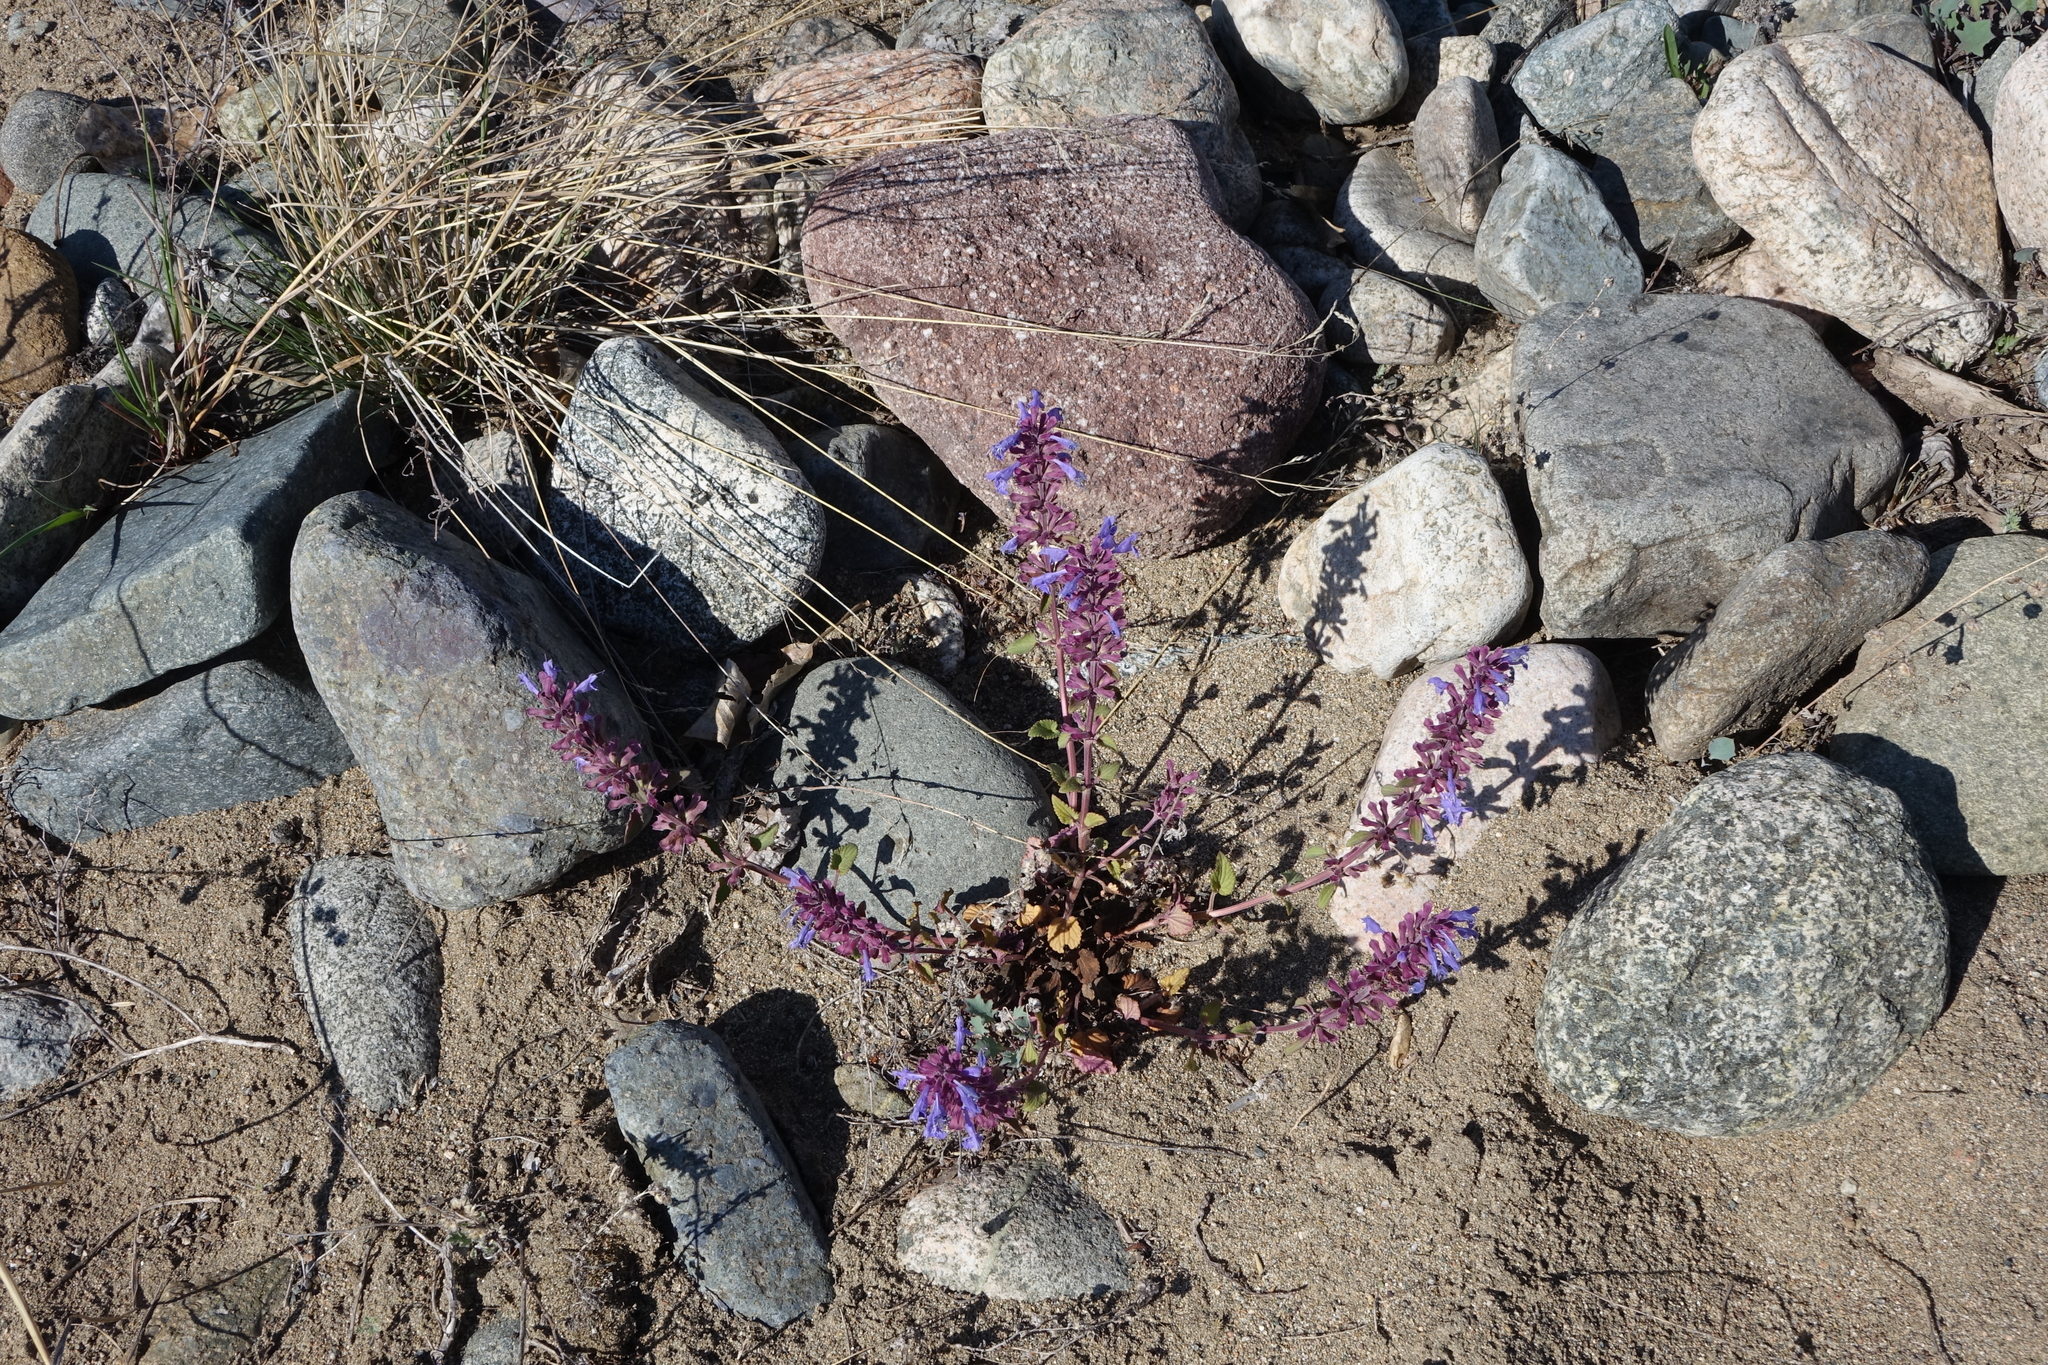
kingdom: Plantae
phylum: Tracheophyta
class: Magnoliopsida
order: Lamiales
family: Lamiaceae
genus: Dracocephalum
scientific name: Dracocephalum nutans
